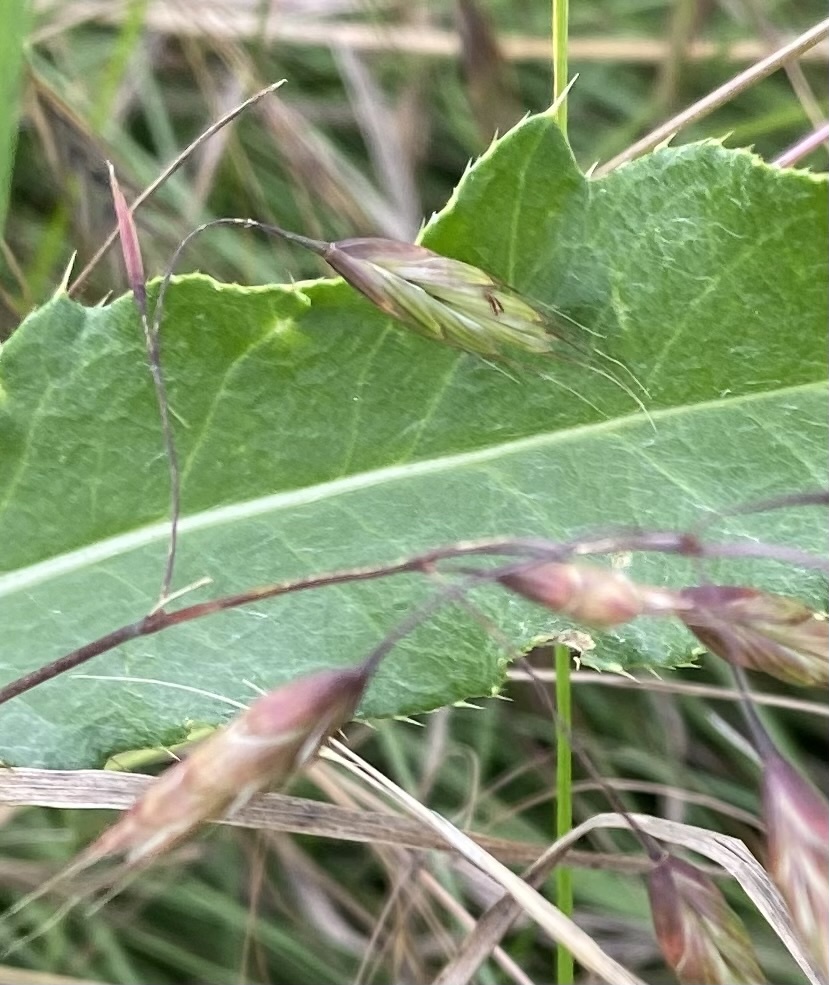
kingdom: Plantae
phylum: Tracheophyta
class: Liliopsida
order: Poales
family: Poaceae
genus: Bromus
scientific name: Bromus squarrosus
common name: Corn brome
